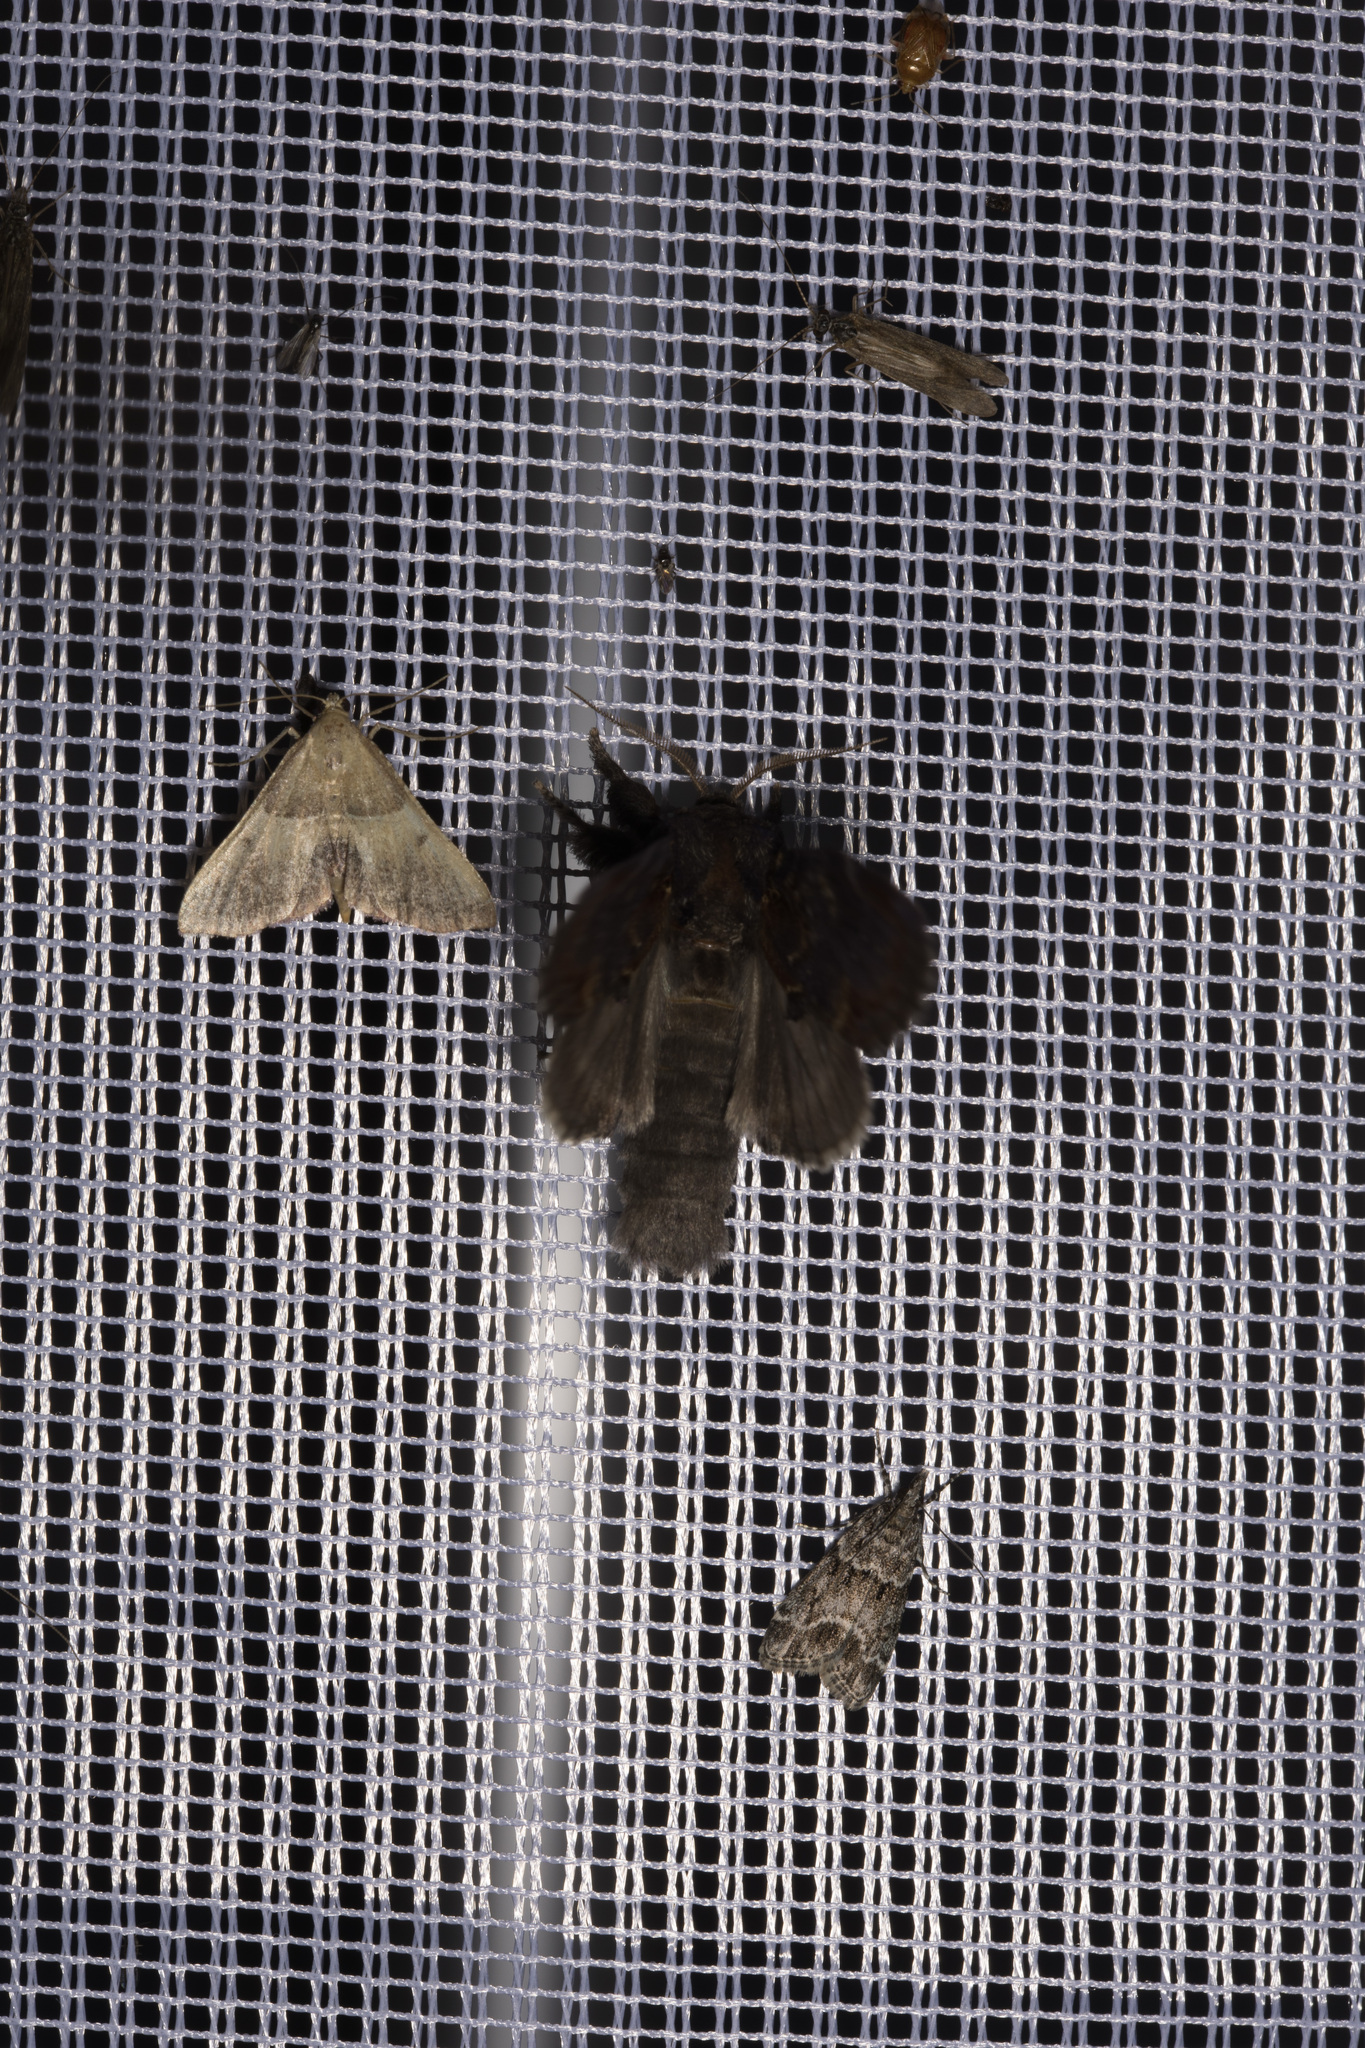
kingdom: Animalia
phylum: Arthropoda
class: Insecta
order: Hemiptera
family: Miridae
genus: Deraeocoris
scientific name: Deraeocoris lutescens
